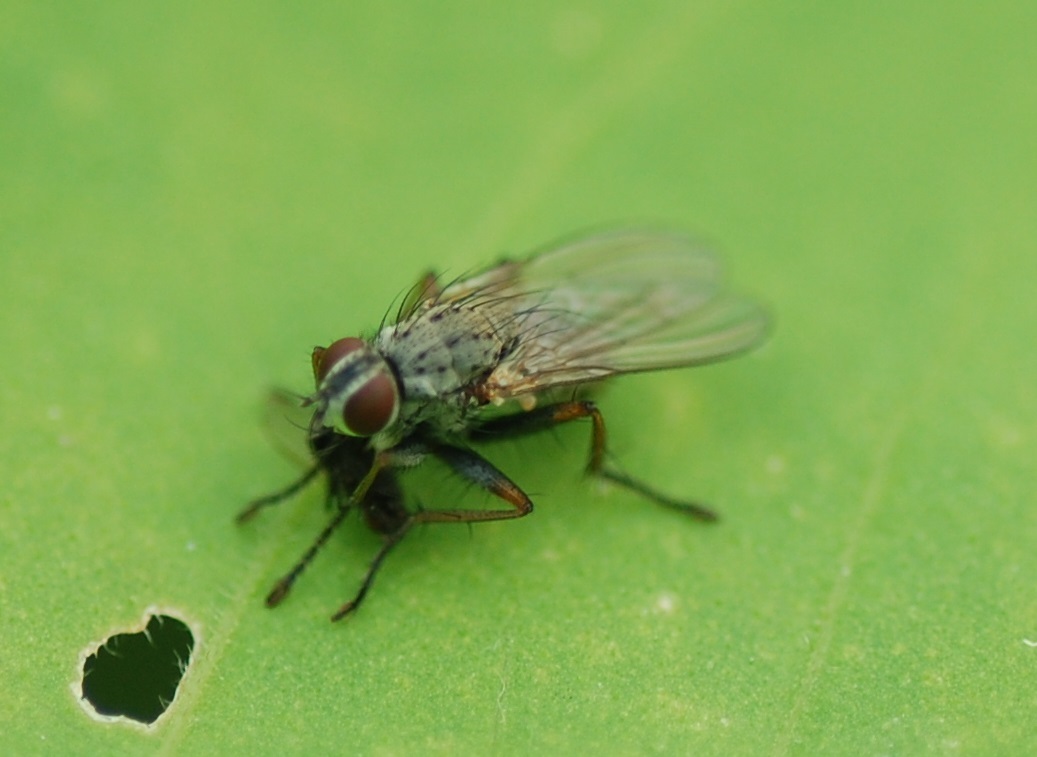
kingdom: Animalia
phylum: Arthropoda
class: Insecta
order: Diptera
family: Muscidae
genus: Coenosia
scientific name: Coenosia tigrina
